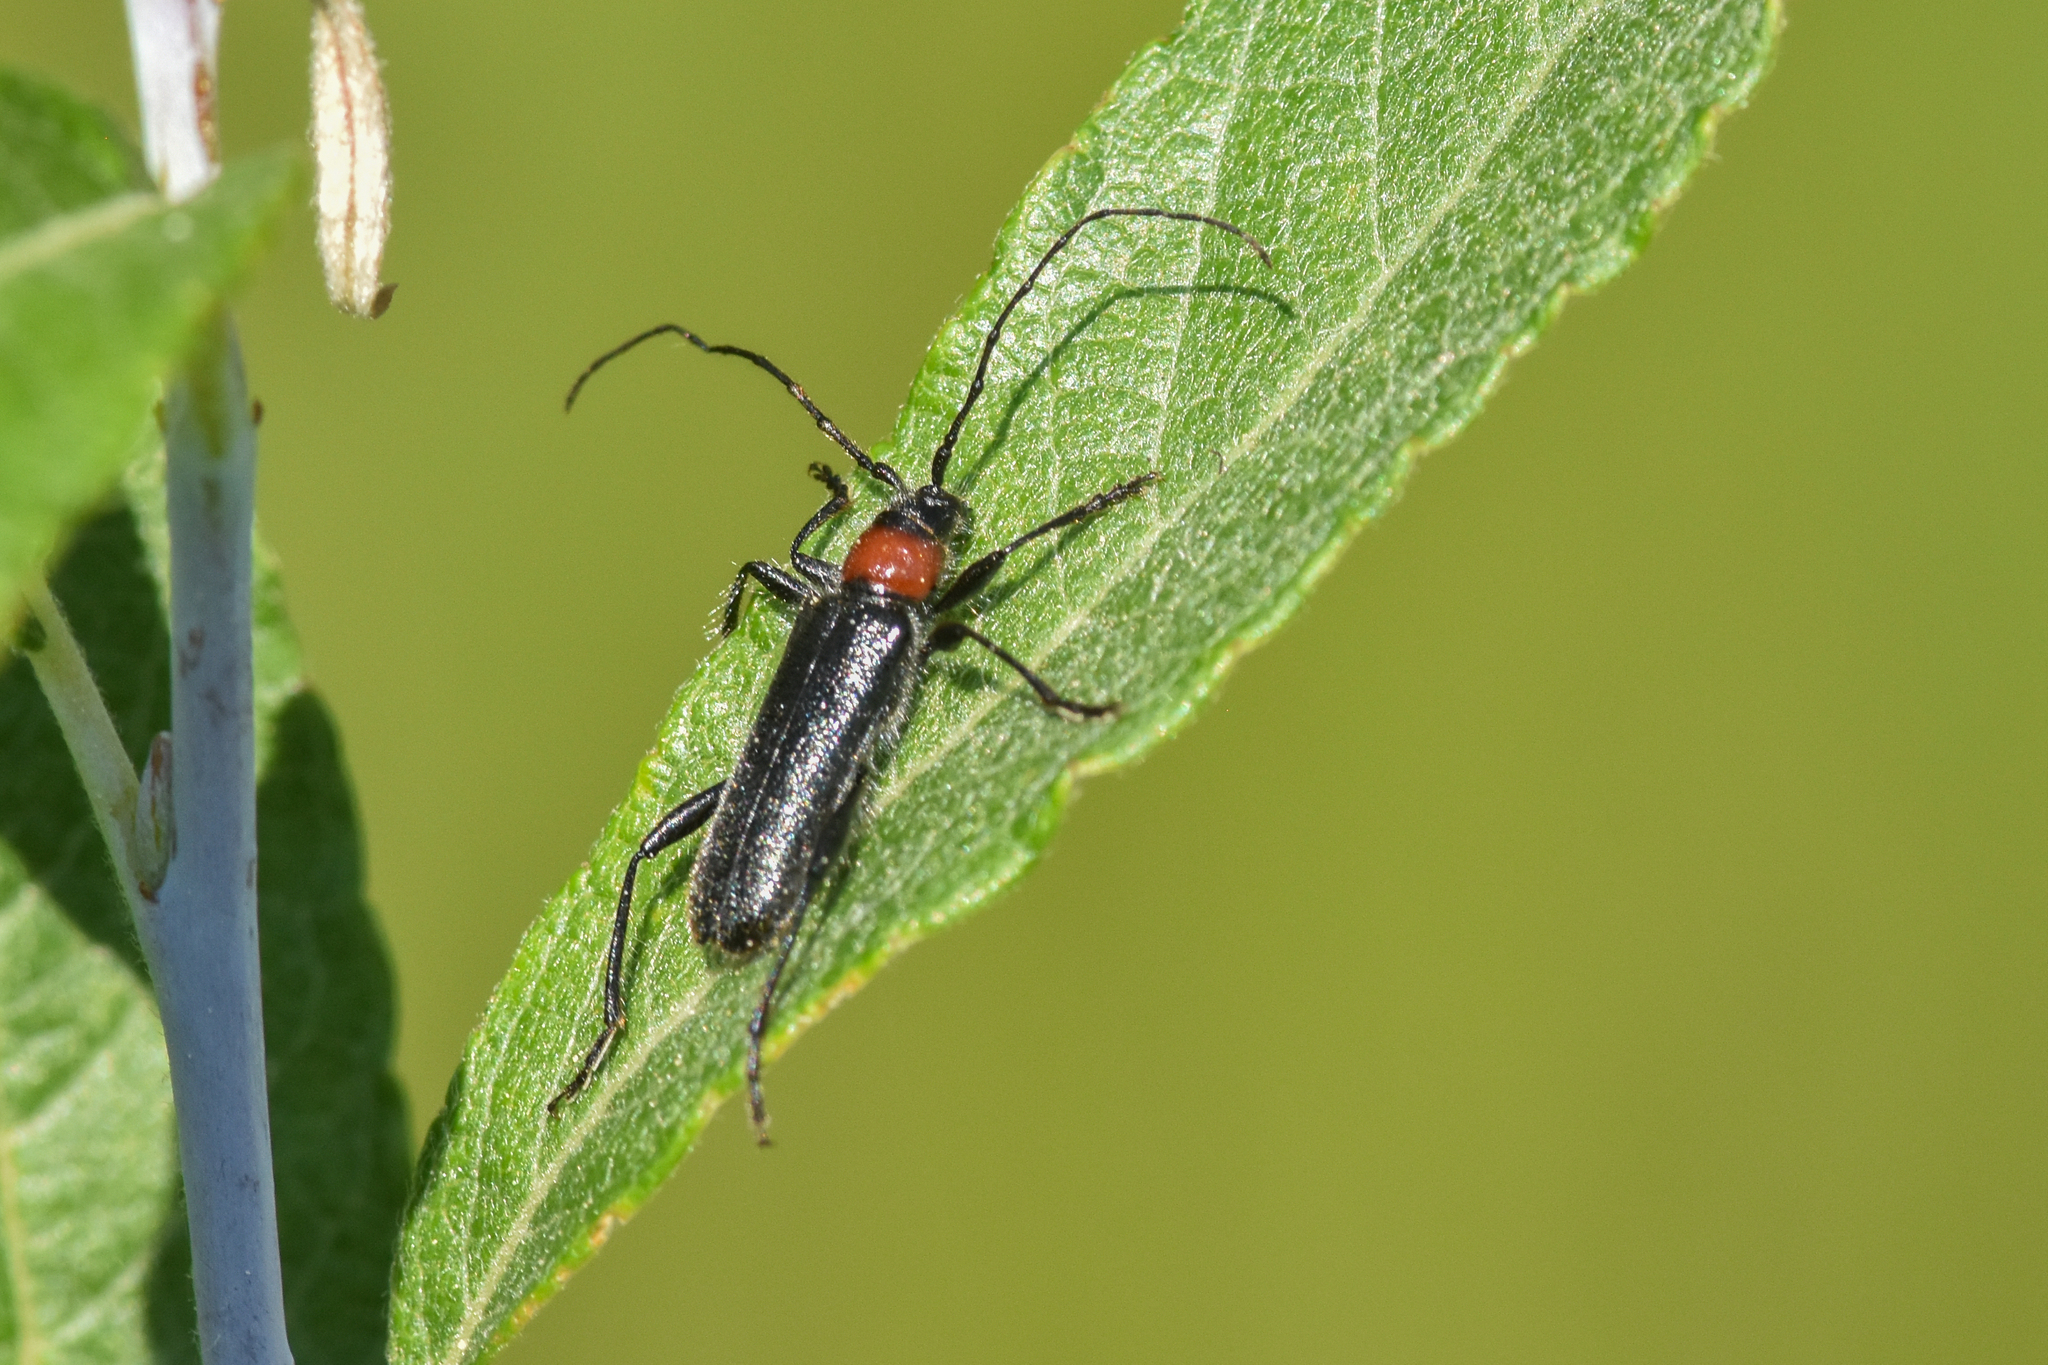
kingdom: Animalia
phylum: Arthropoda
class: Insecta
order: Coleoptera
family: Cerambycidae
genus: Pronocera
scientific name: Pronocera collaris
